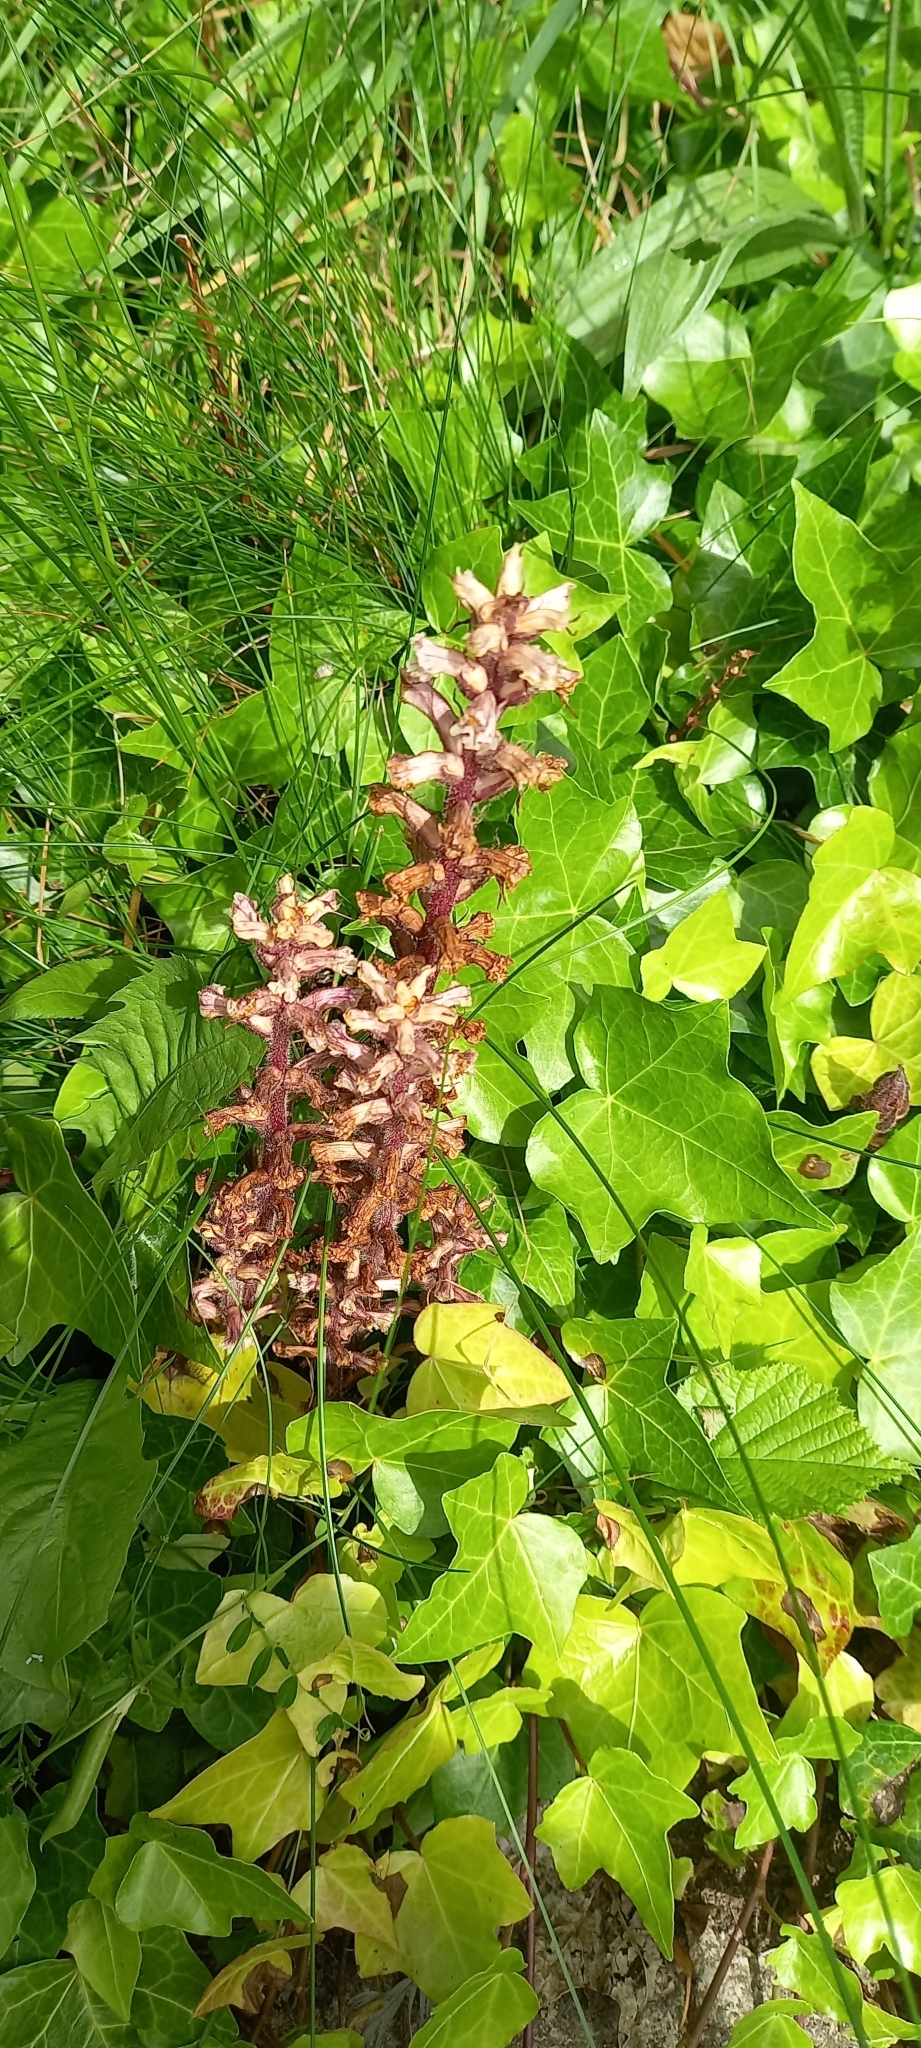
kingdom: Plantae
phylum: Tracheophyta
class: Magnoliopsida
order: Lamiales
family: Orobanchaceae
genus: Orobanche
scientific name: Orobanche hederae
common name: Ivy broomrape
